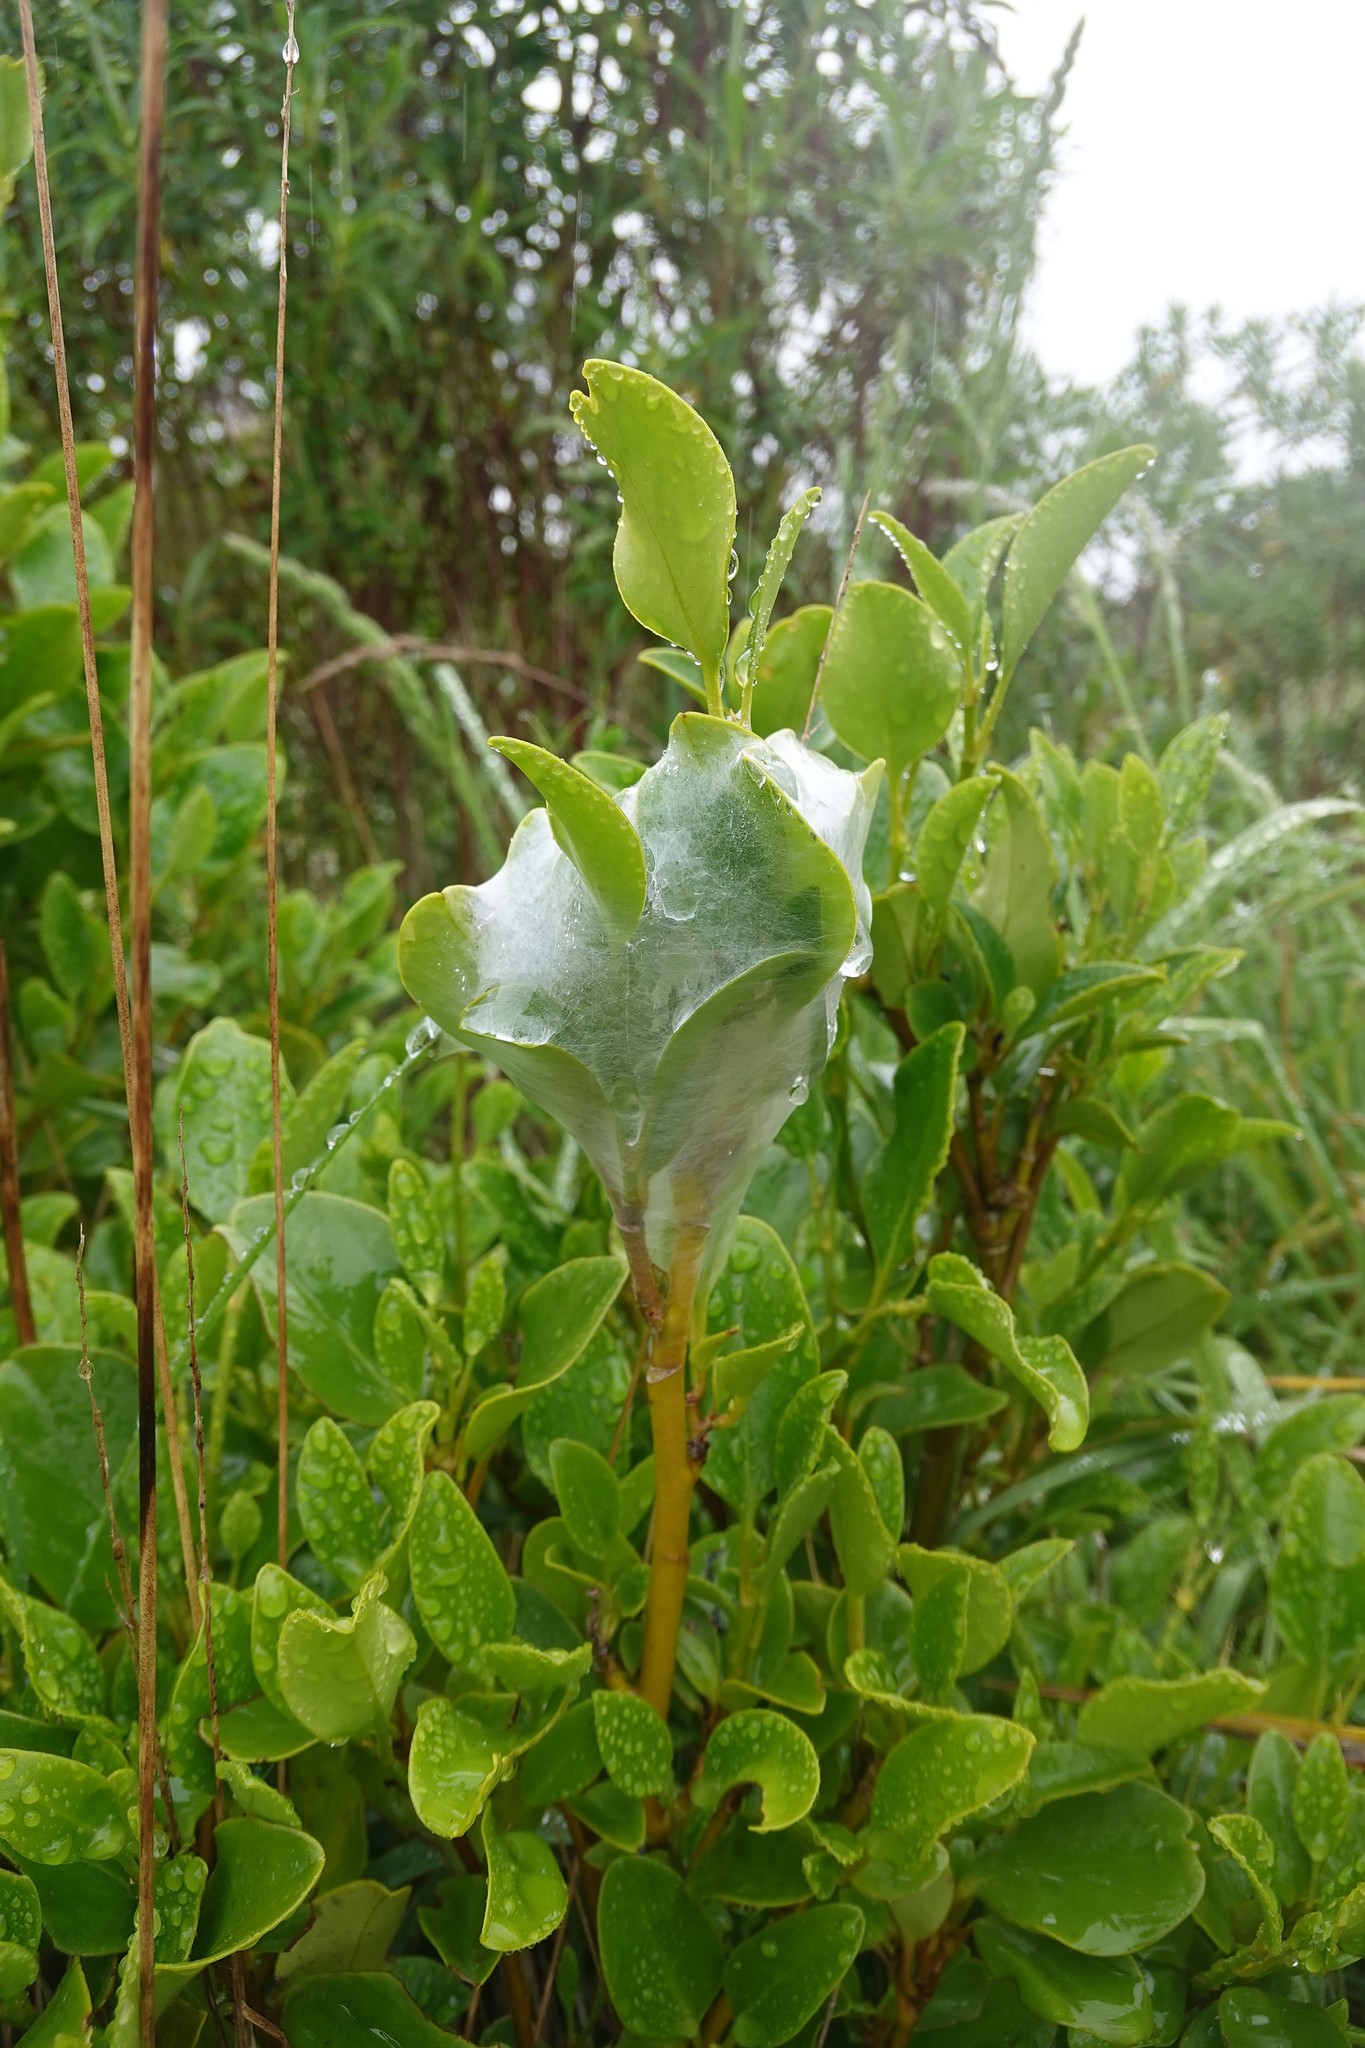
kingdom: Animalia
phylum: Arthropoda
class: Arachnida
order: Araneae
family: Pisauridae
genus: Dolomedes
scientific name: Dolomedes minor
